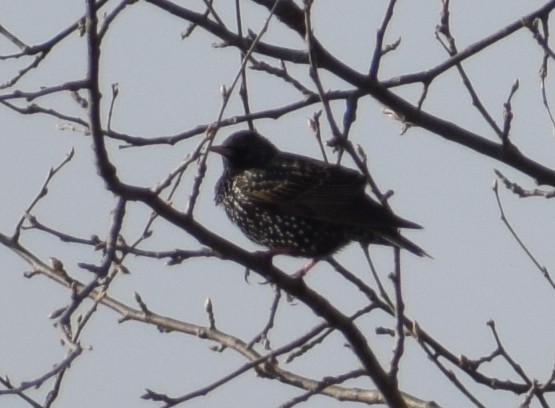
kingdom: Animalia
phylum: Chordata
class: Aves
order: Passeriformes
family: Sturnidae
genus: Sturnus
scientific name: Sturnus vulgaris
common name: Common starling
